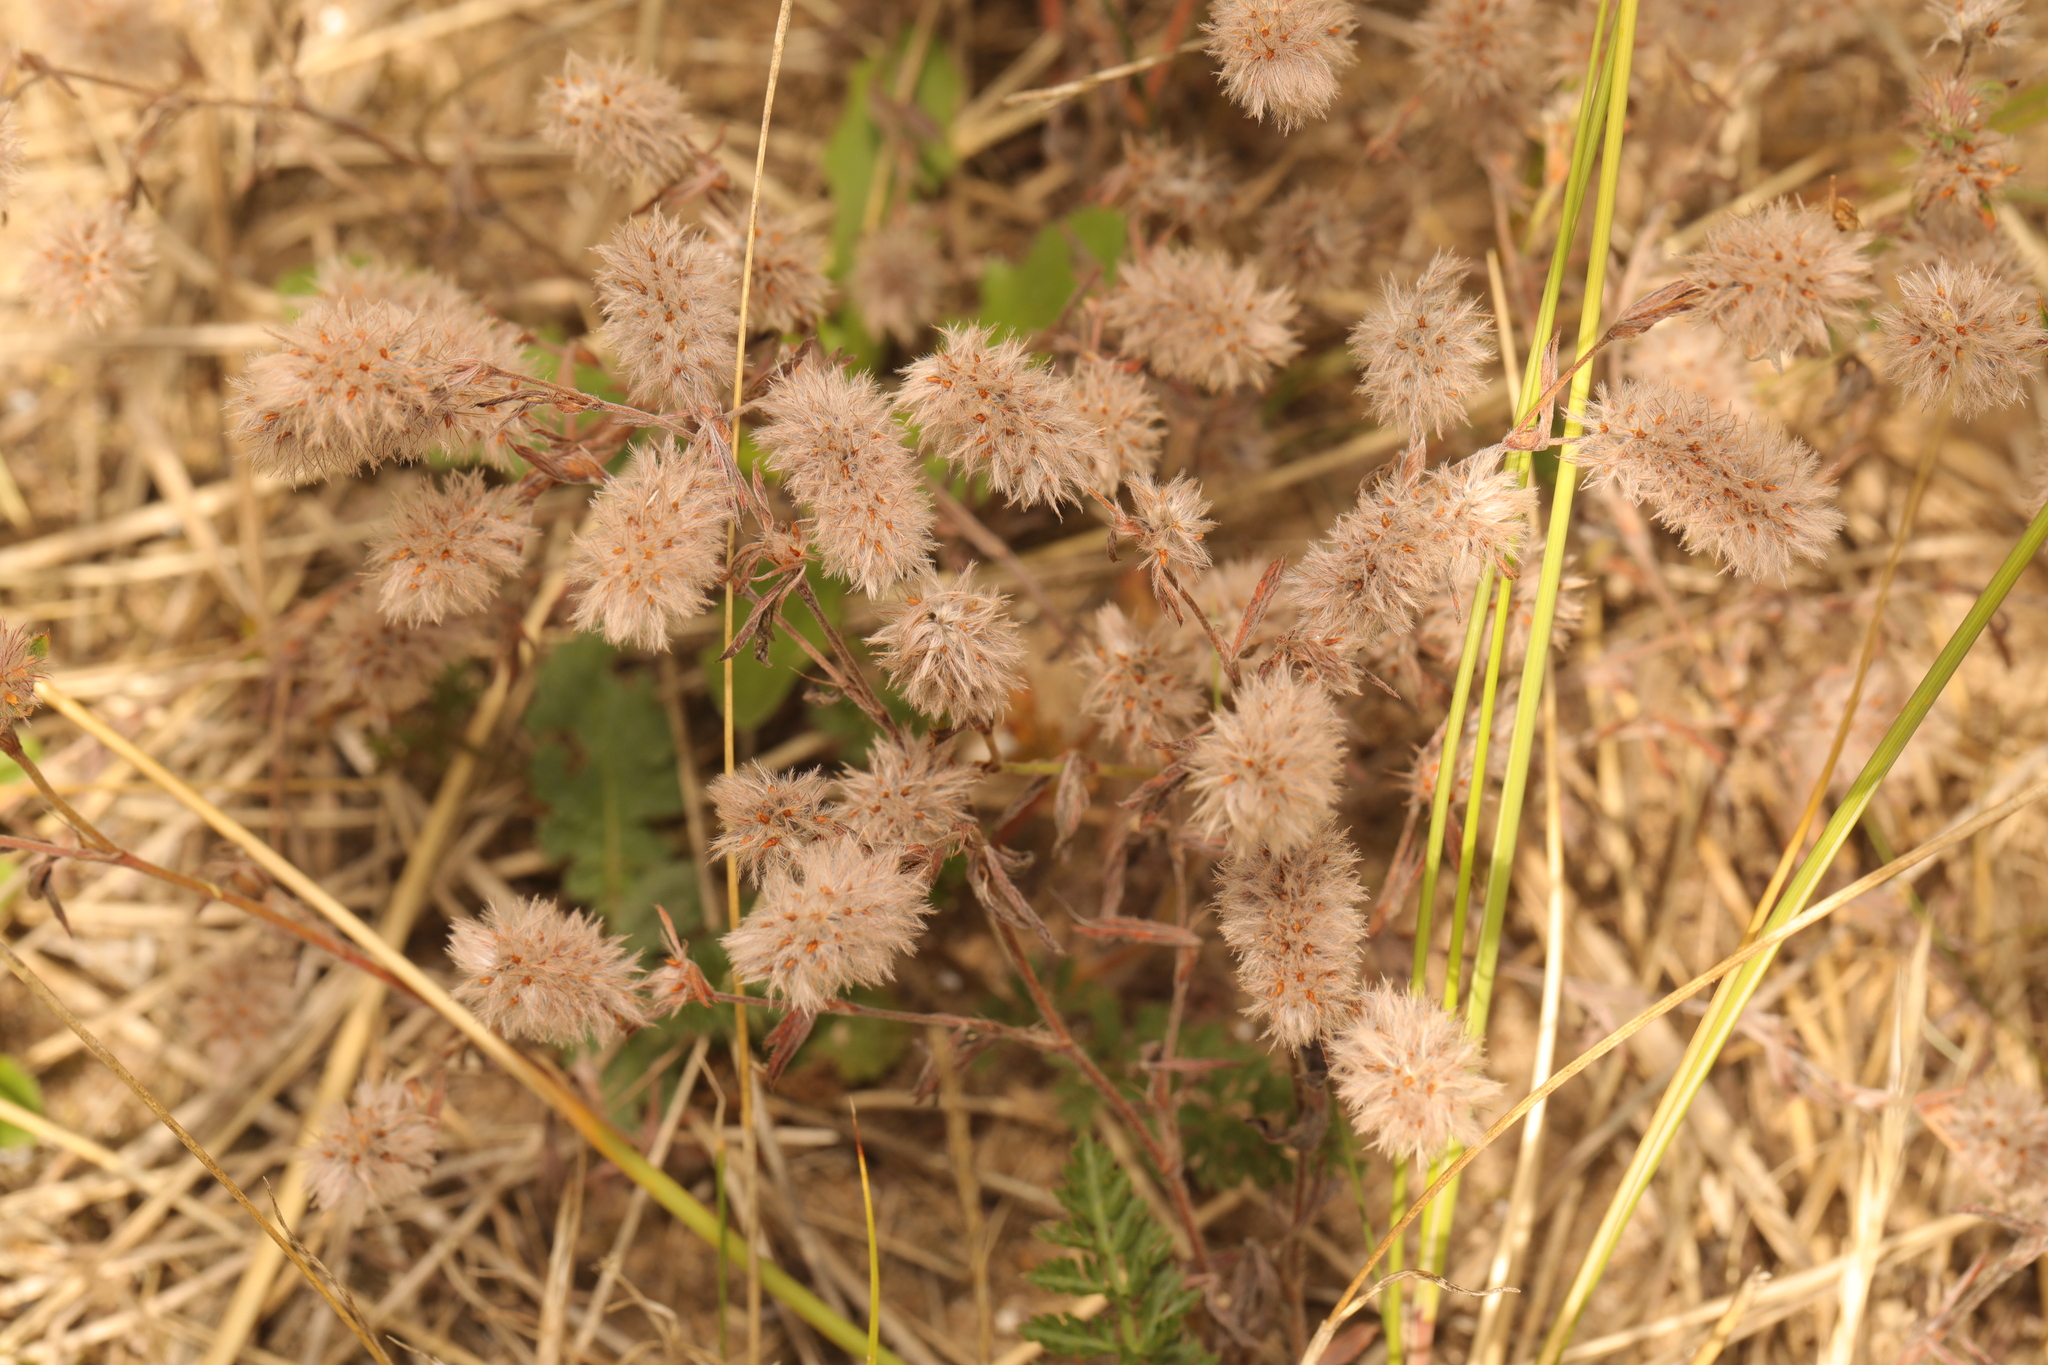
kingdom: Plantae
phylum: Tracheophyta
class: Magnoliopsida
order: Fabales
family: Fabaceae
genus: Trifolium
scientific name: Trifolium arvense
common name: Hare's-foot clover
